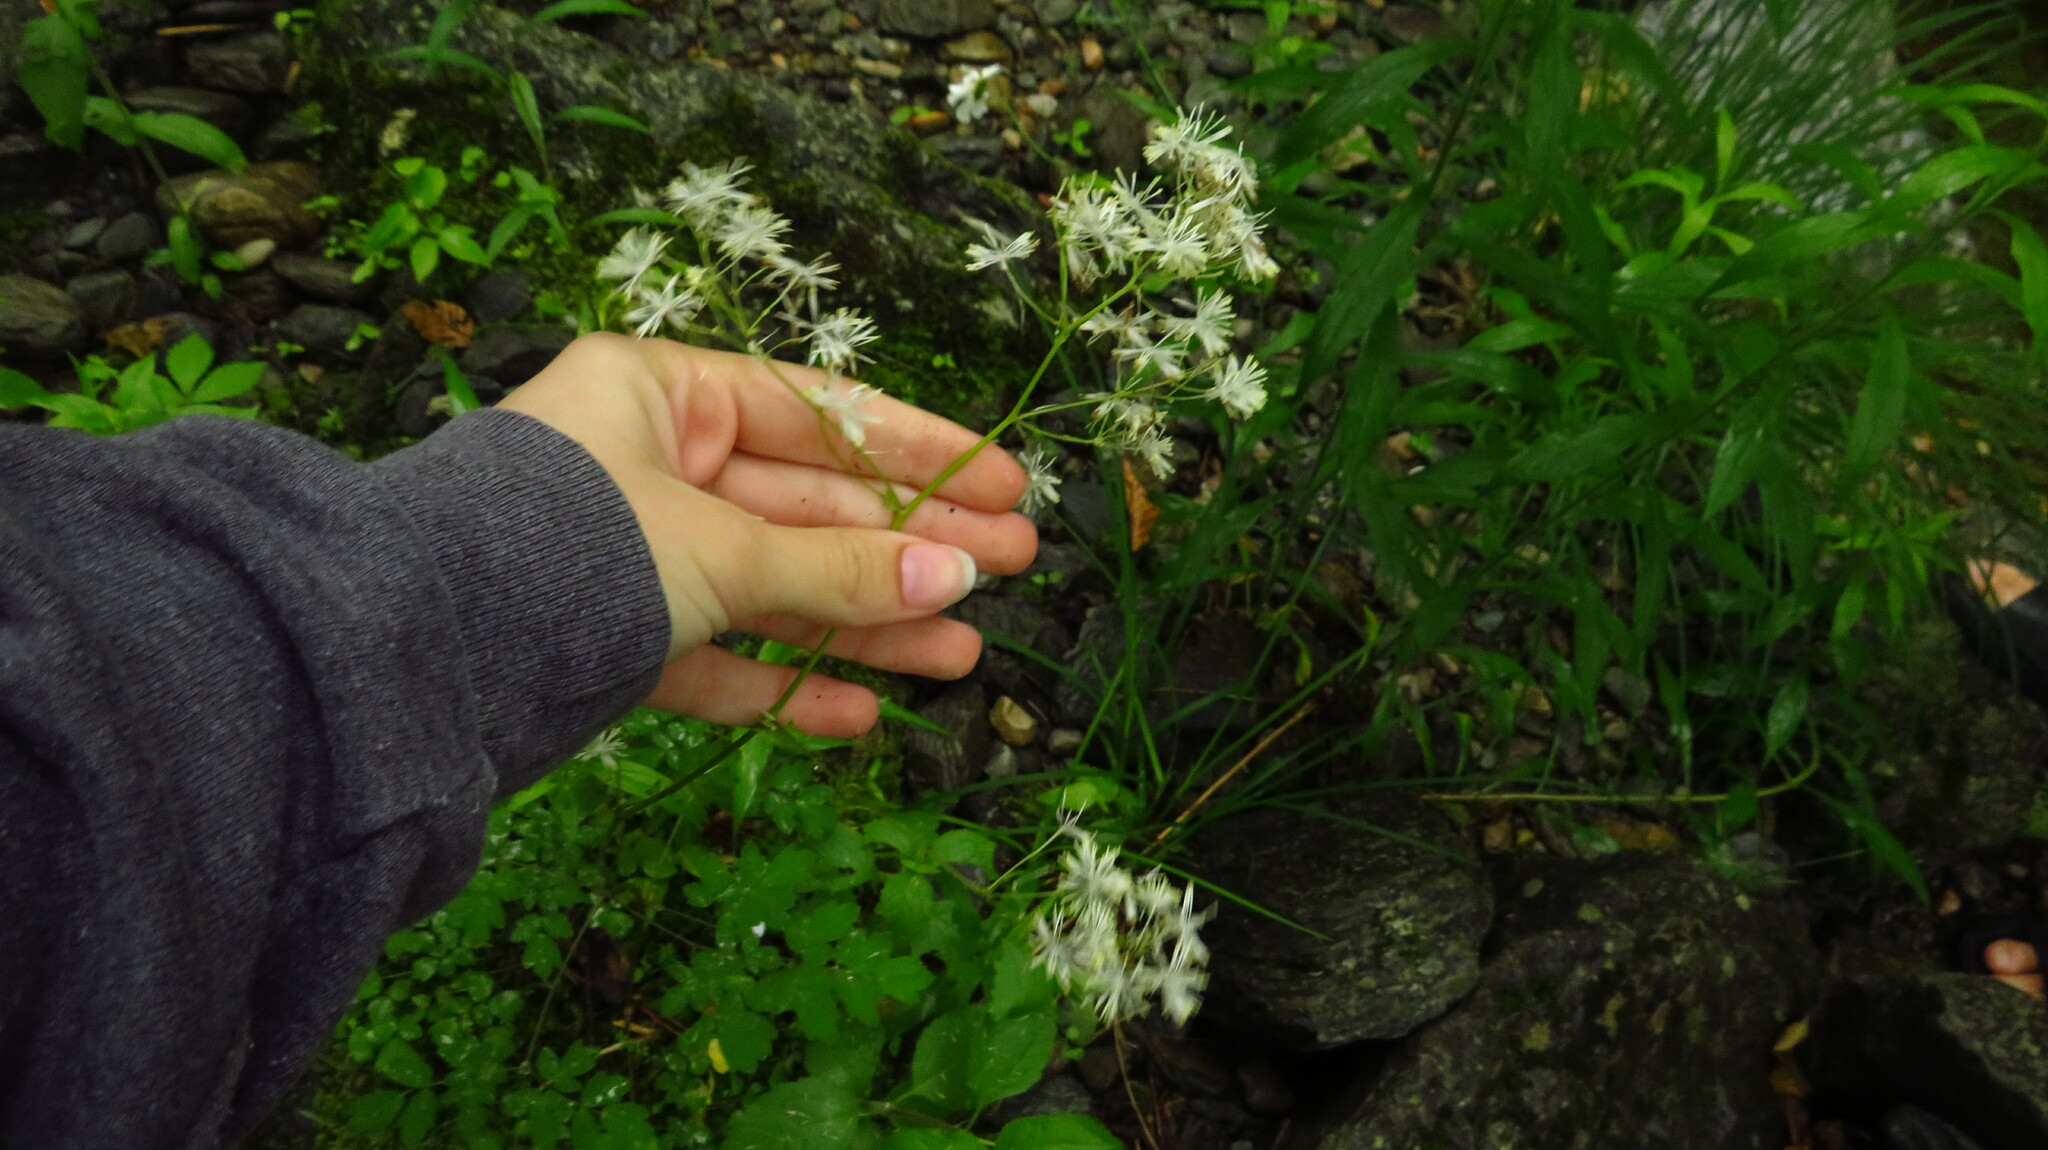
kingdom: Plantae
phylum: Tracheophyta
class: Magnoliopsida
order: Ranunculales
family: Ranunculaceae
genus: Thalictrum
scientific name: Thalictrum pubescens
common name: King-of-the-meadow
